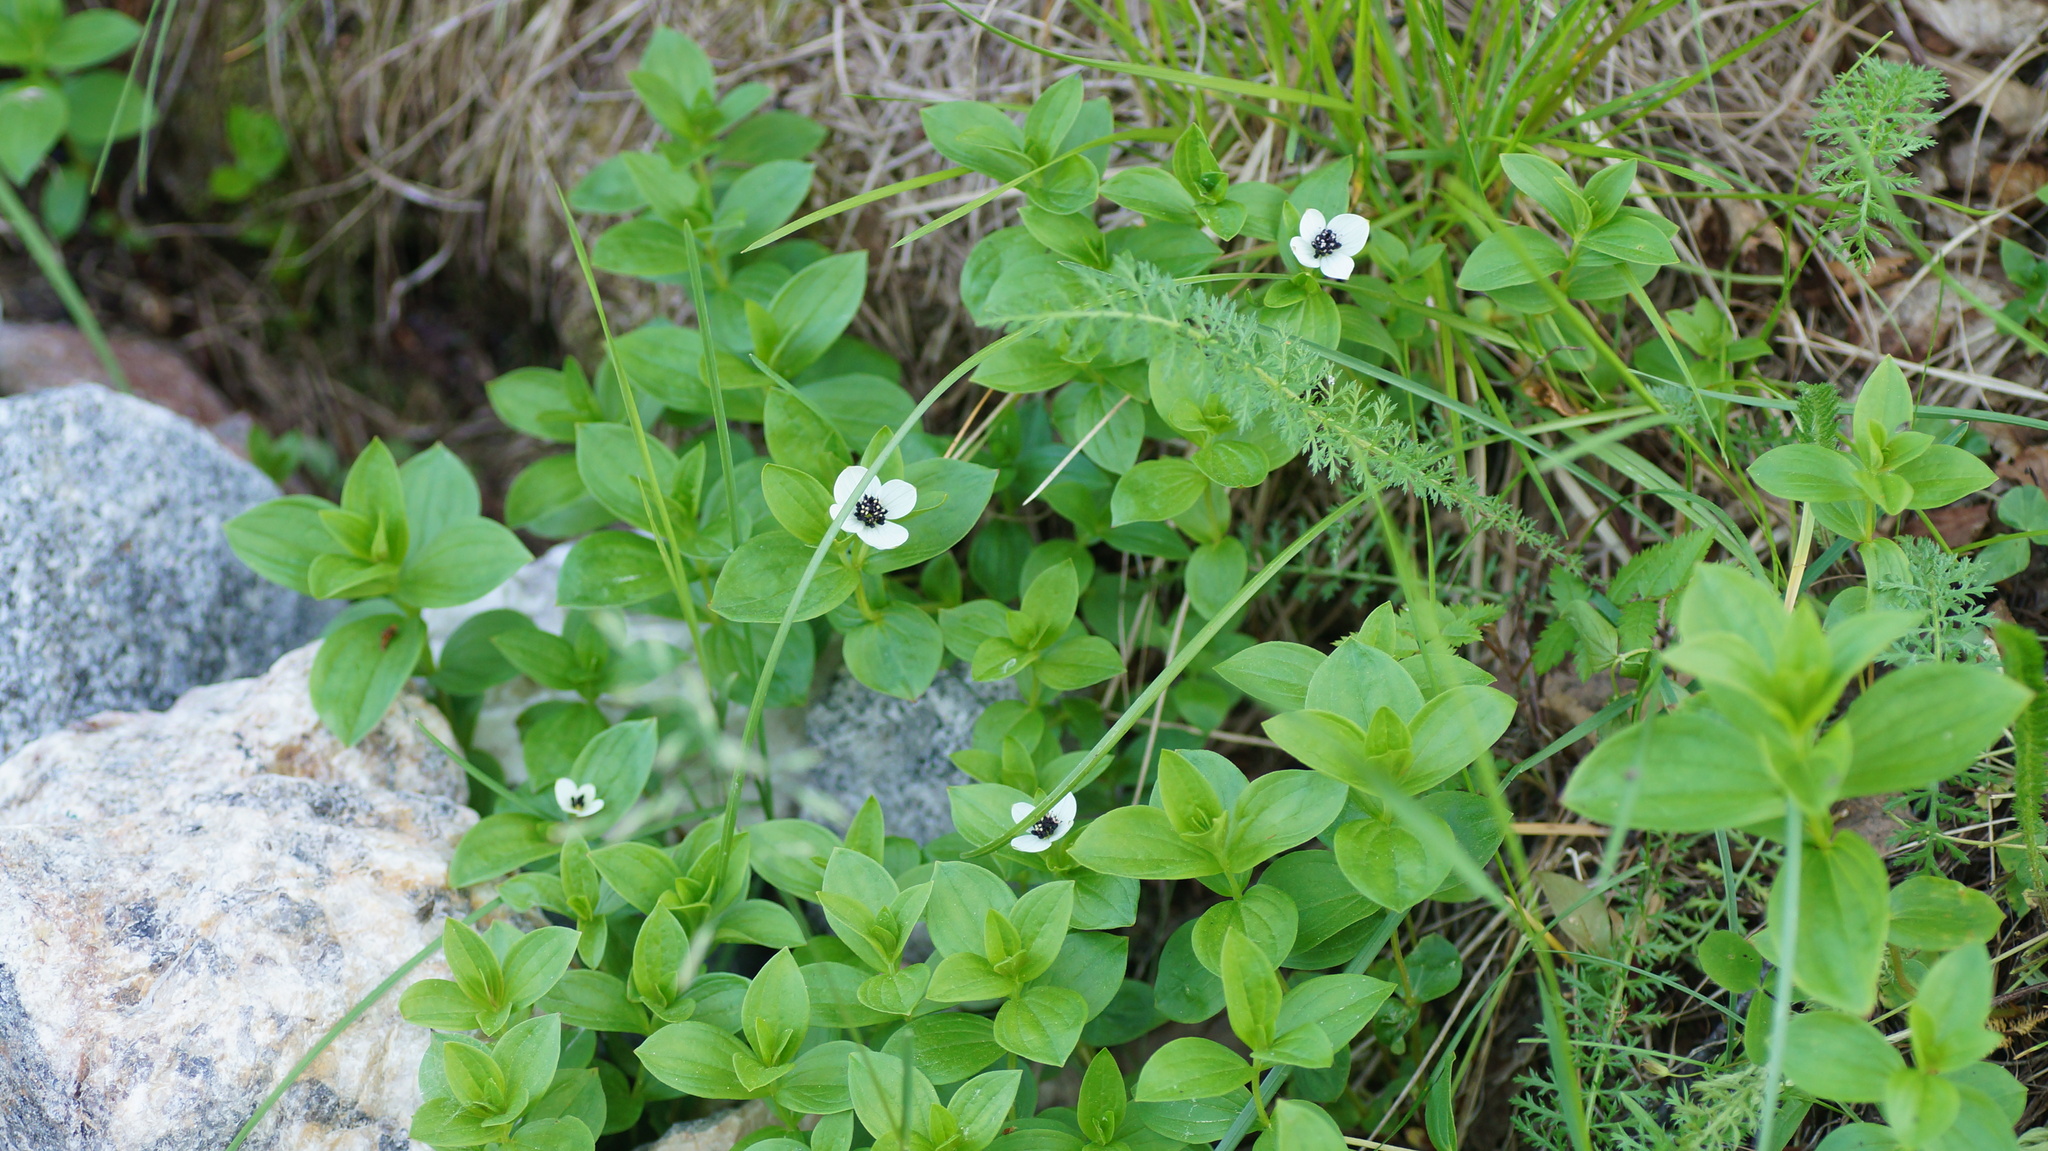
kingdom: Plantae
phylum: Tracheophyta
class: Magnoliopsida
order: Cornales
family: Cornaceae
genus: Cornus
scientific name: Cornus suecica
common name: Dwarf cornel
